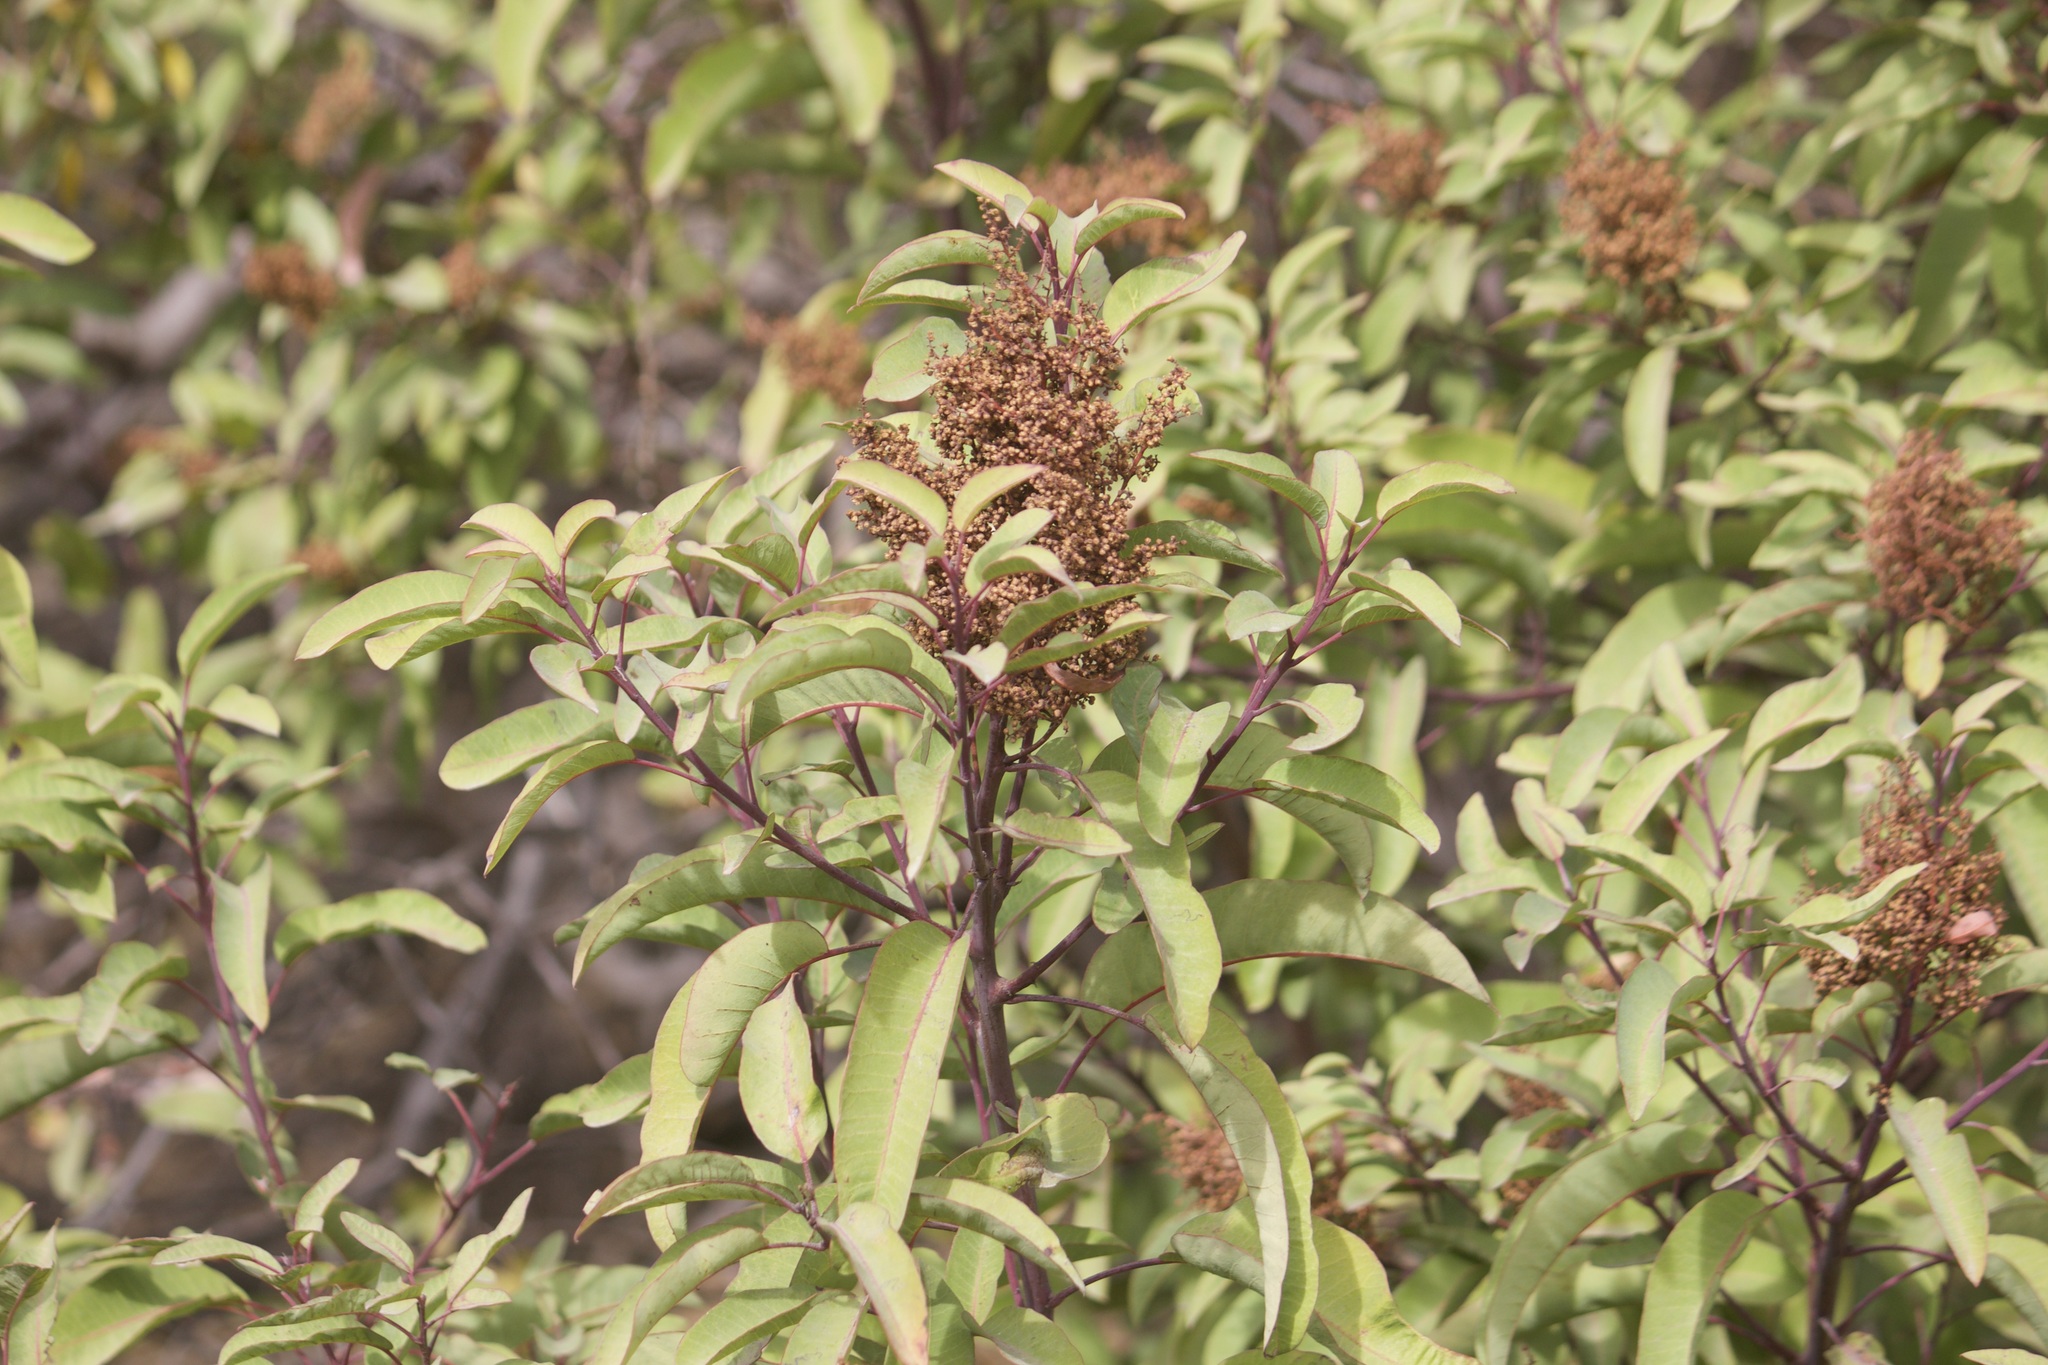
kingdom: Plantae
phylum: Tracheophyta
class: Magnoliopsida
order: Sapindales
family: Anacardiaceae
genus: Malosma
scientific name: Malosma laurina
